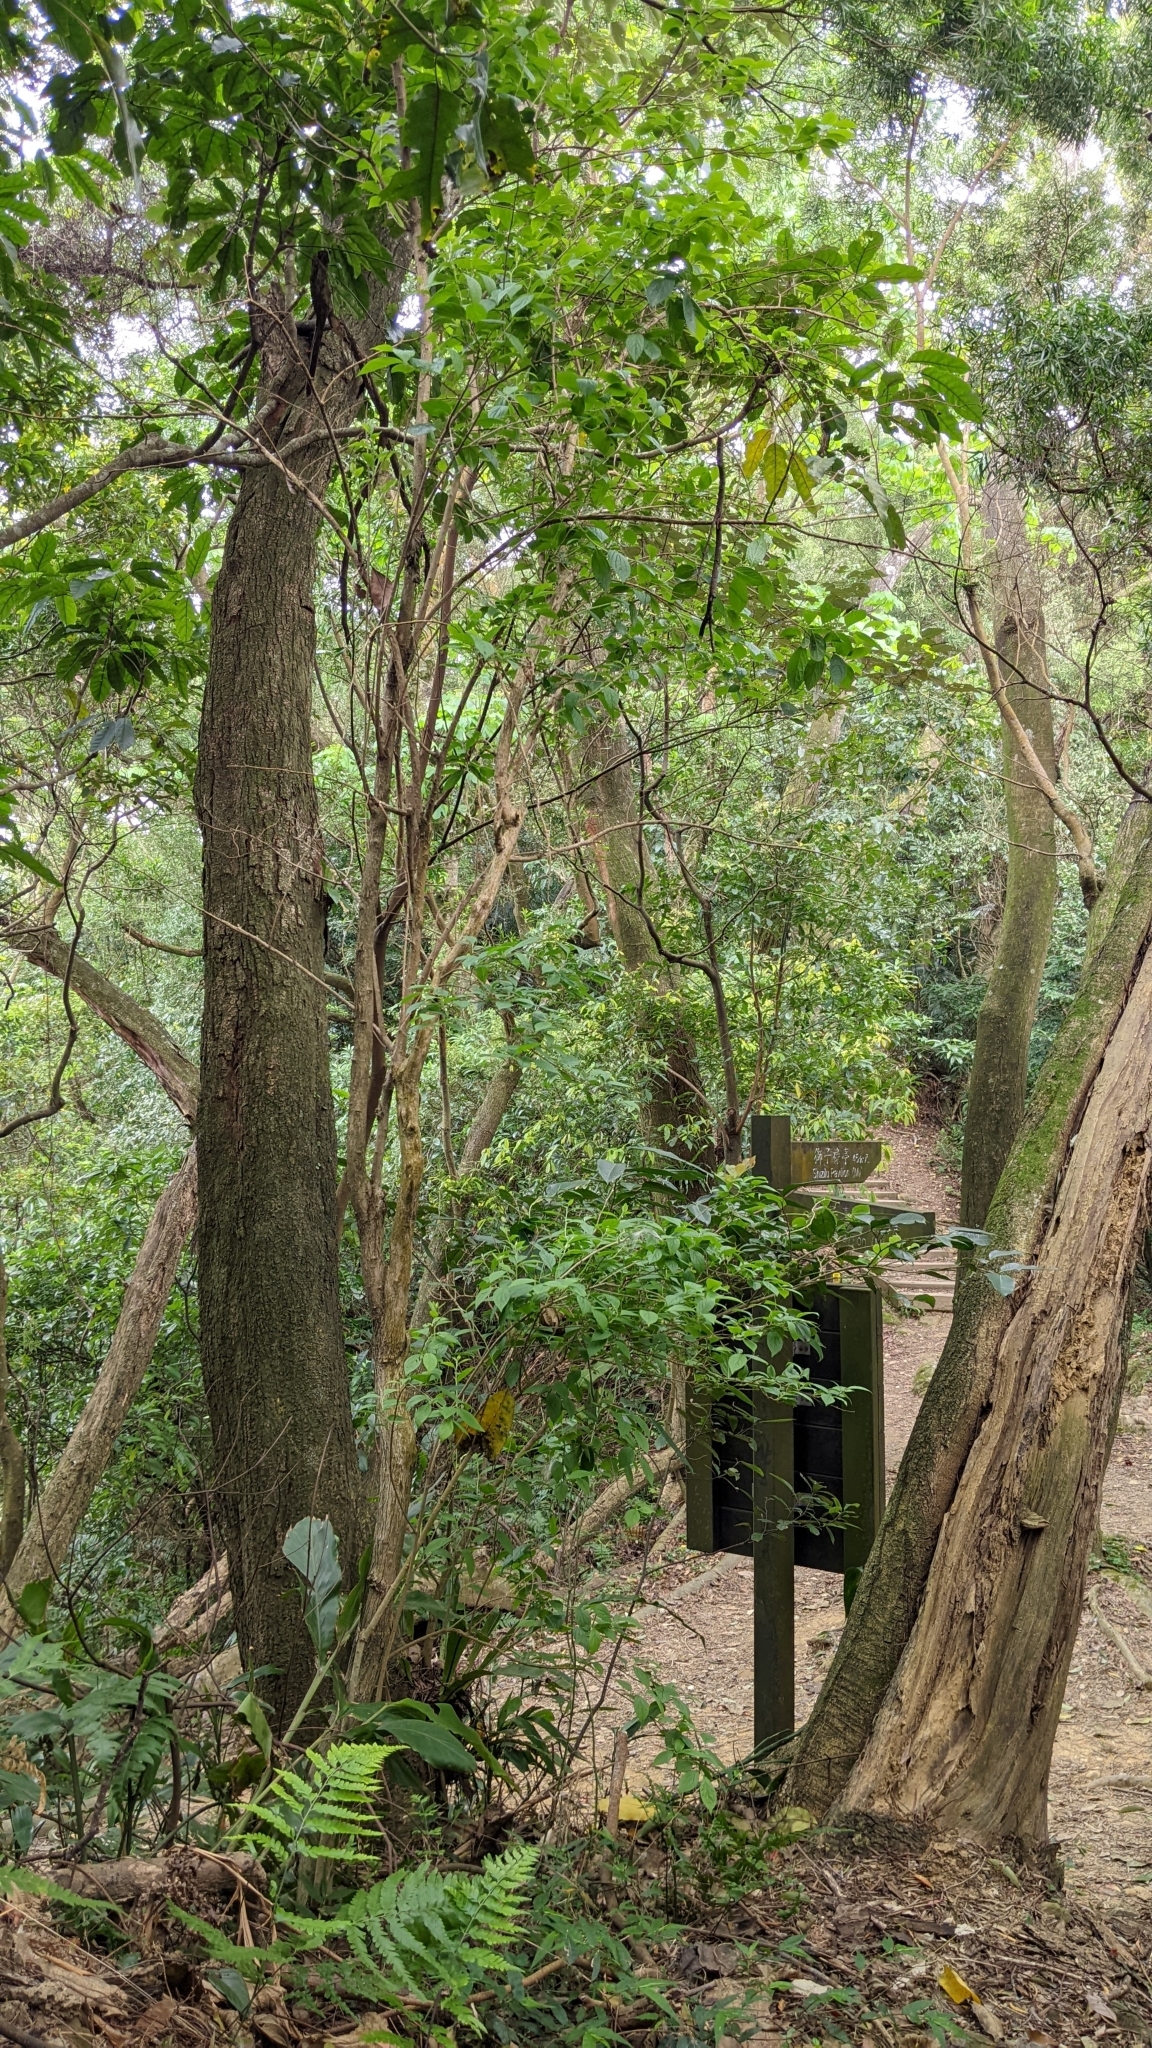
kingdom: Plantae
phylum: Tracheophyta
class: Magnoliopsida
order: Ericales
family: Symplocaceae
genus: Symplocos
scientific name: Symplocos paniculata
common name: Sapphire-berry
